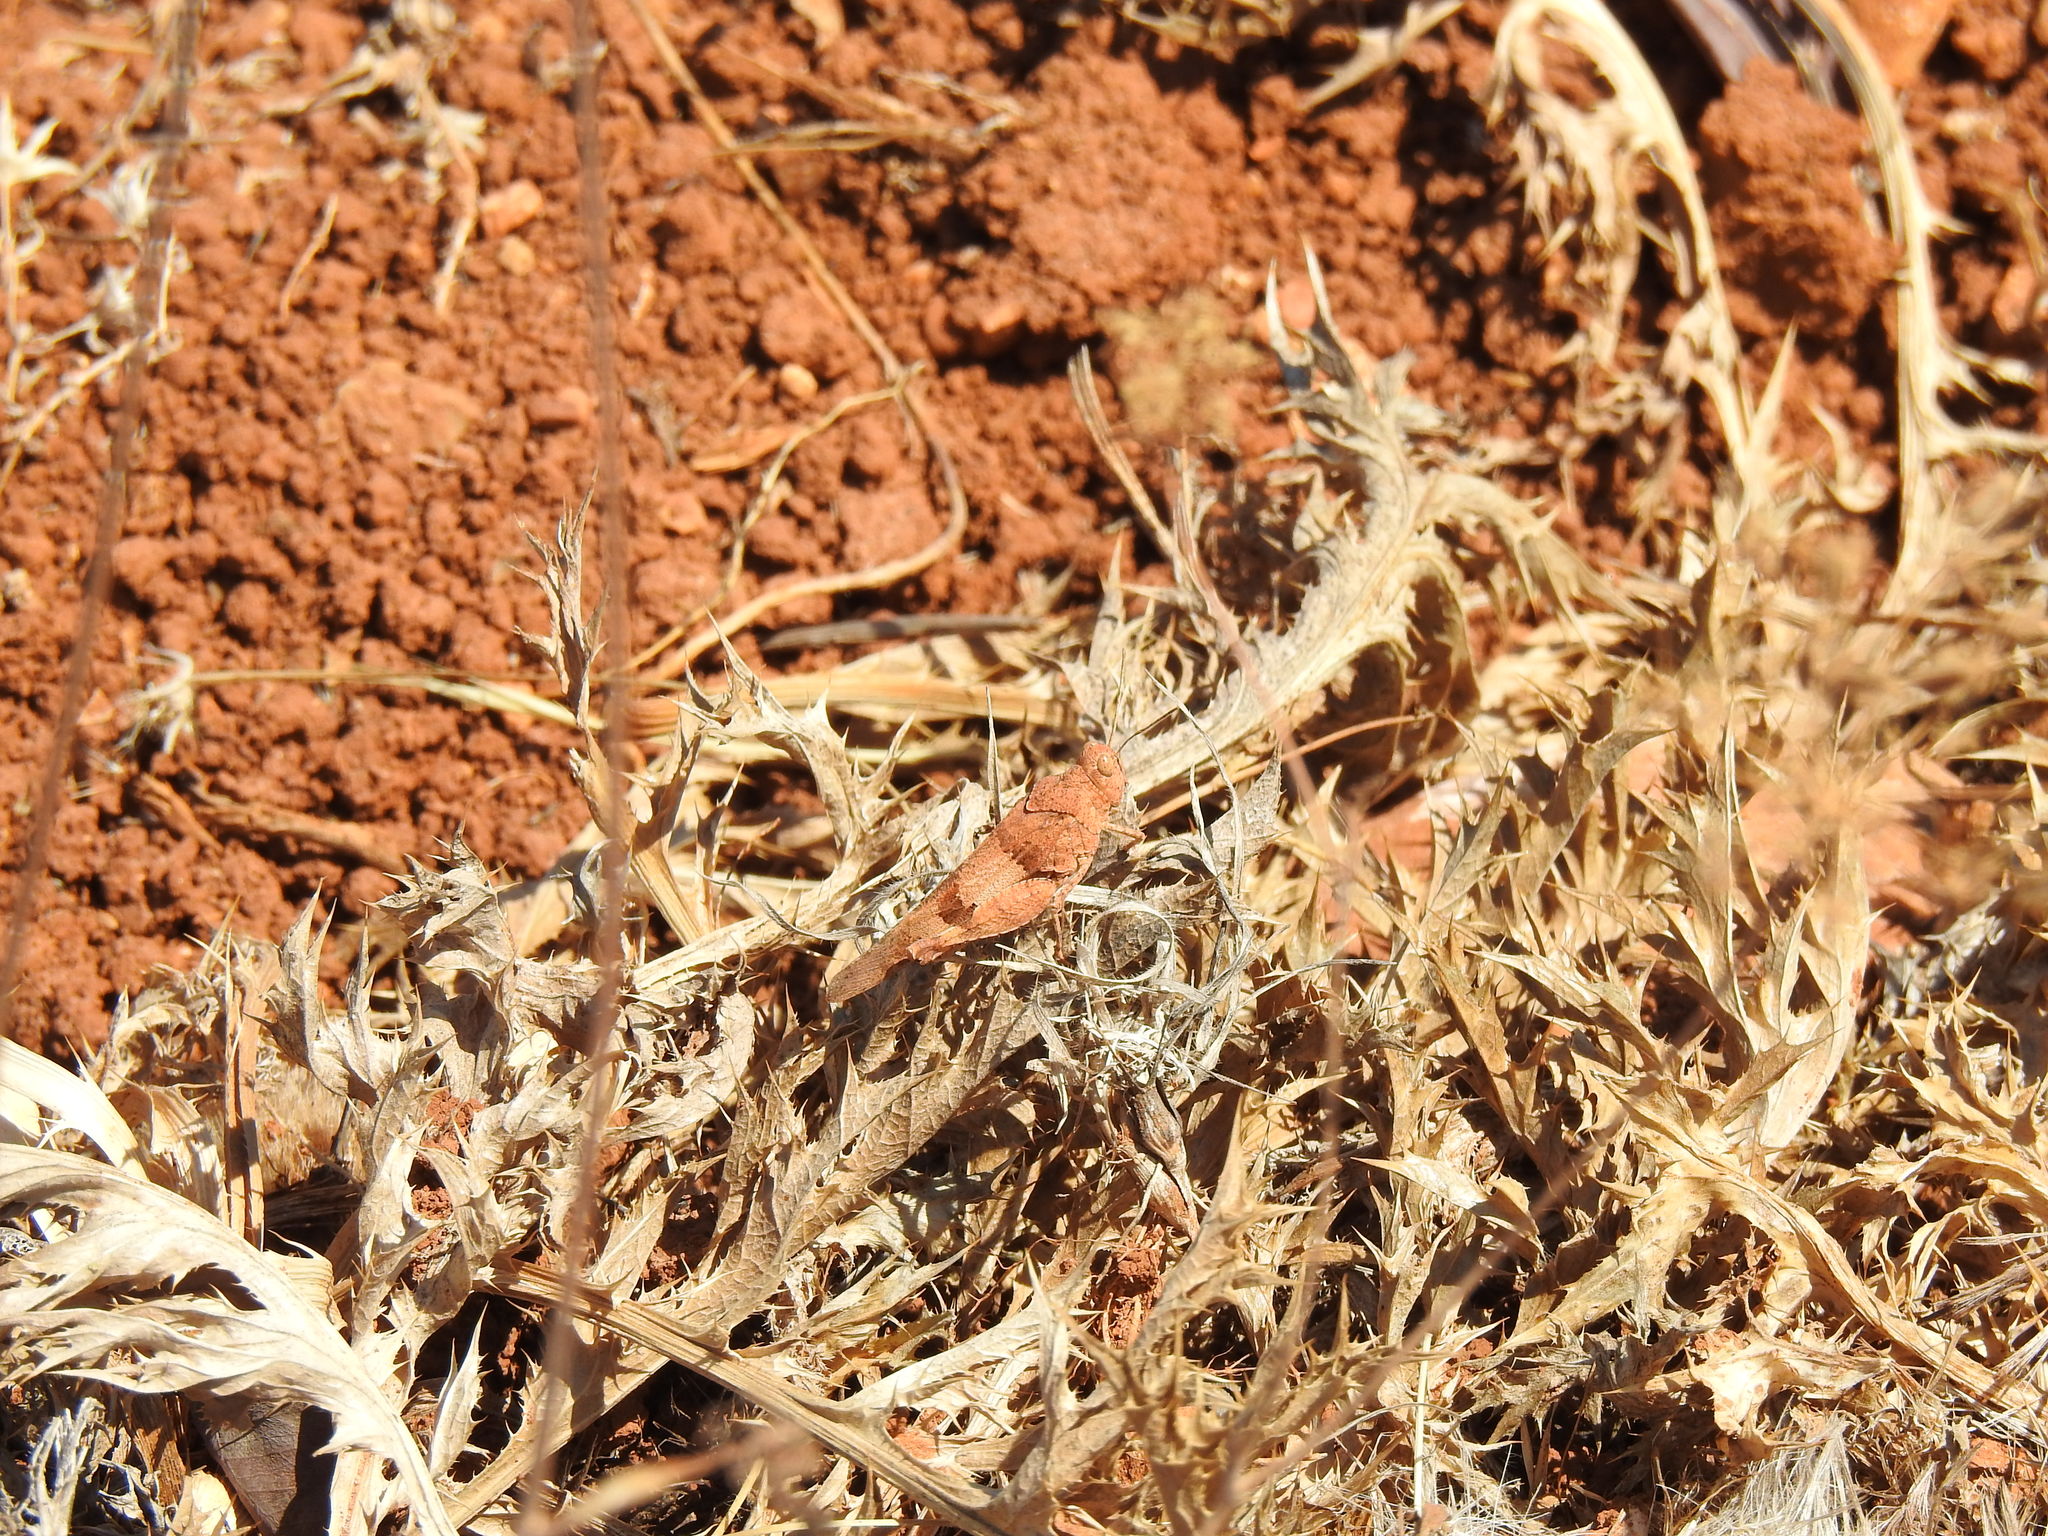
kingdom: Animalia
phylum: Arthropoda
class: Insecta
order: Orthoptera
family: Acrididae
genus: Oedipoda
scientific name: Oedipoda
